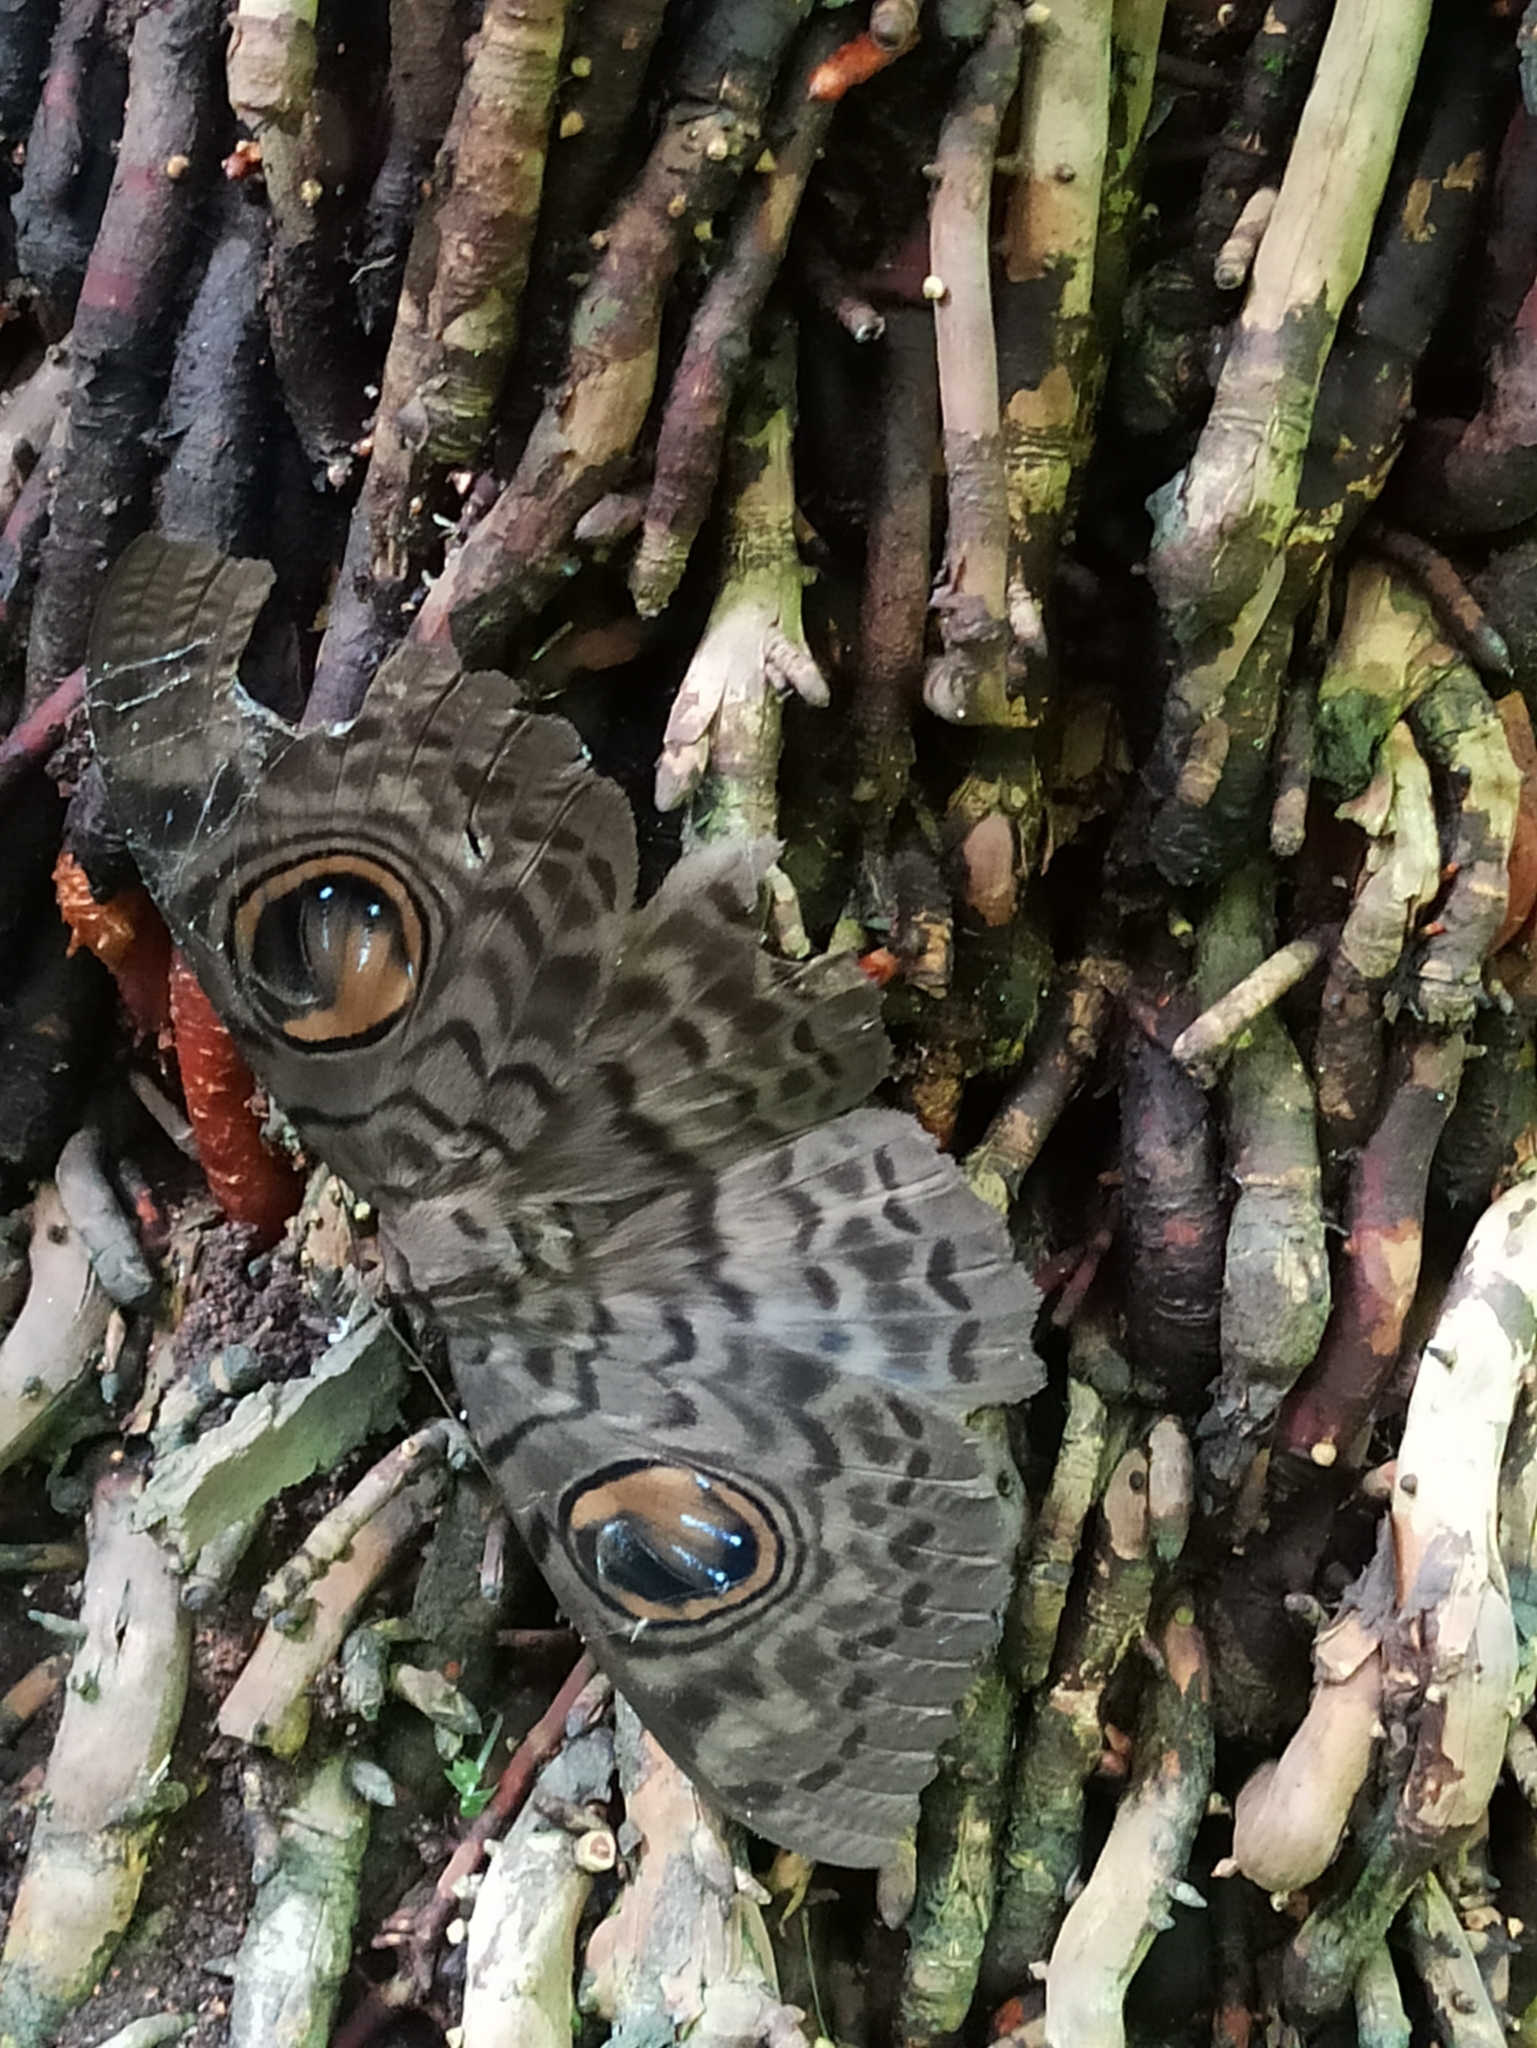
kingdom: Animalia
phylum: Arthropoda
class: Insecta
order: Lepidoptera
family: Erebidae
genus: Erebus
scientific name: Erebus macrops
